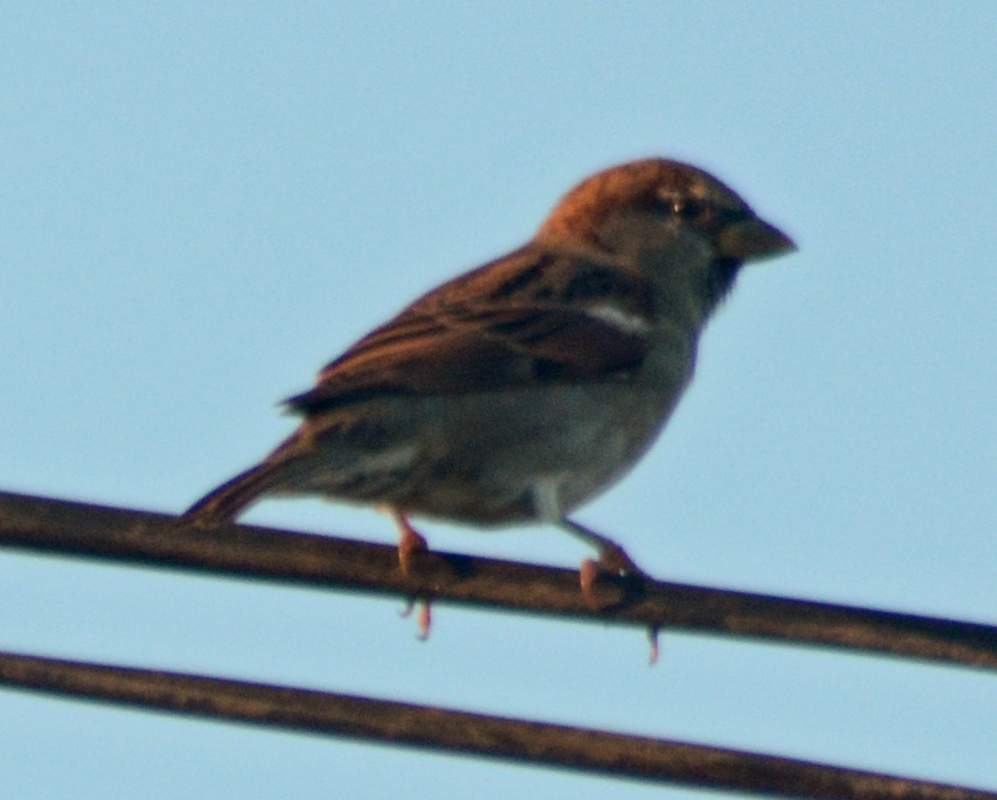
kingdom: Animalia
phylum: Chordata
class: Aves
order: Passeriformes
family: Passeridae
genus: Passer
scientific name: Passer domesticus
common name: House sparrow
